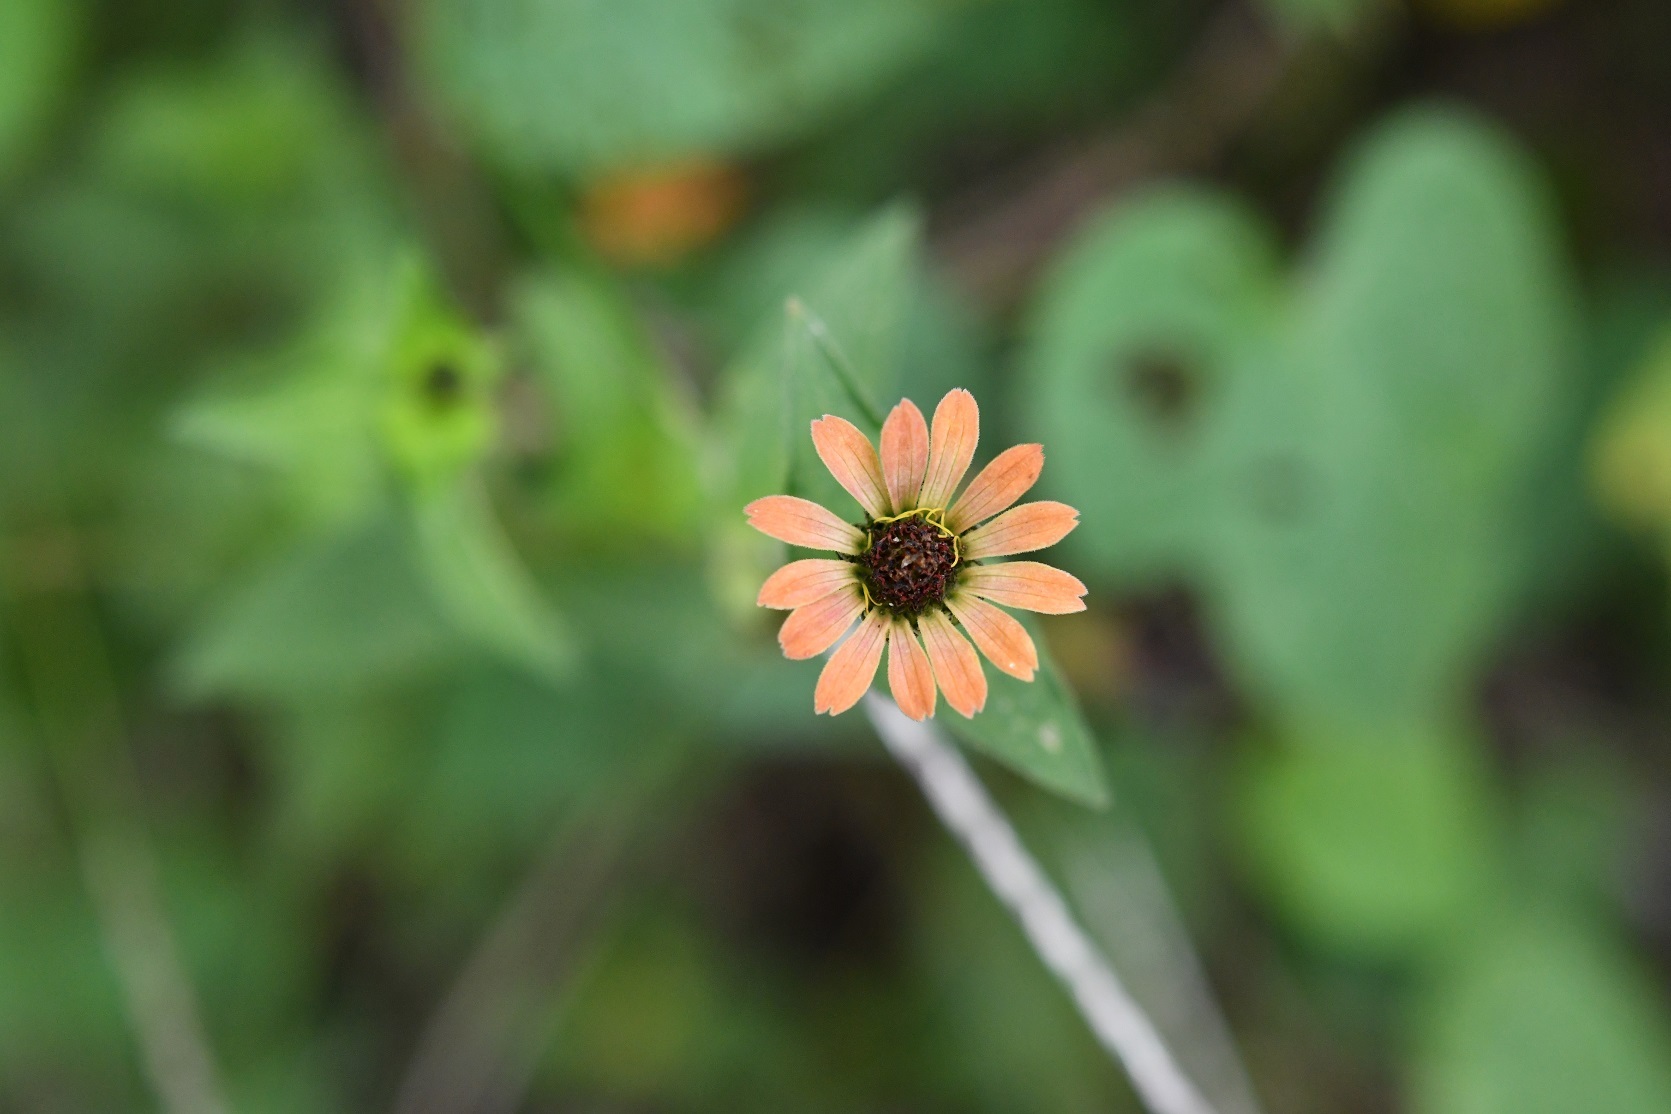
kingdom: Plantae
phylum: Tracheophyta
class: Magnoliopsida
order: Asterales
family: Asteraceae
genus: Zinnia
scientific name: Zinnia peruviana
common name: Peruvian zinnia
